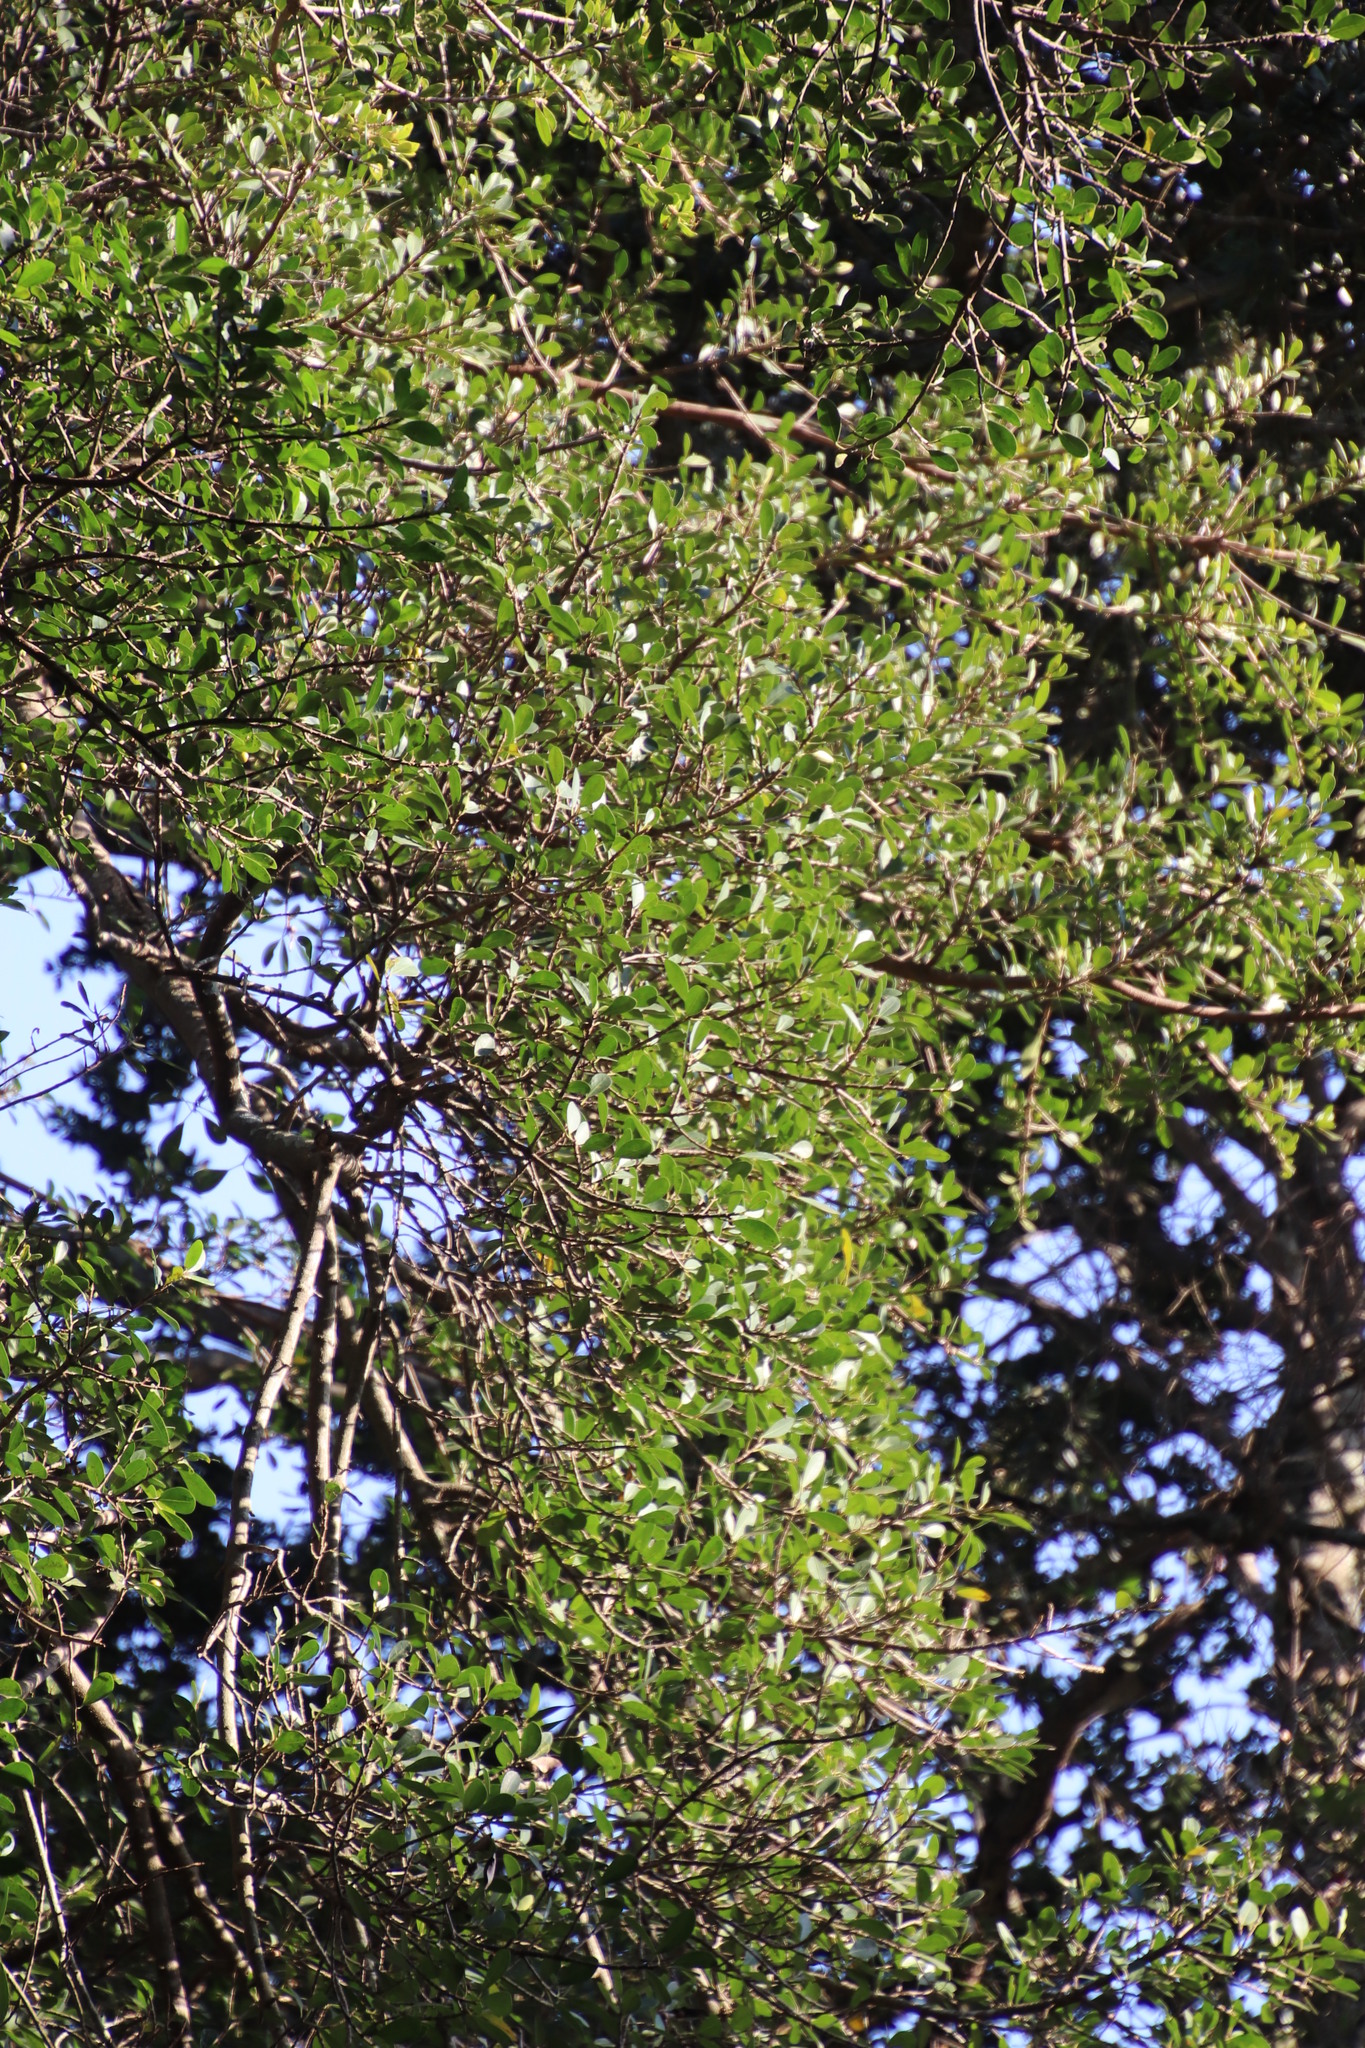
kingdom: Plantae
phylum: Tracheophyta
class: Magnoliopsida
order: Rosales
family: Moraceae
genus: Ficus
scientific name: Ficus natalensis
